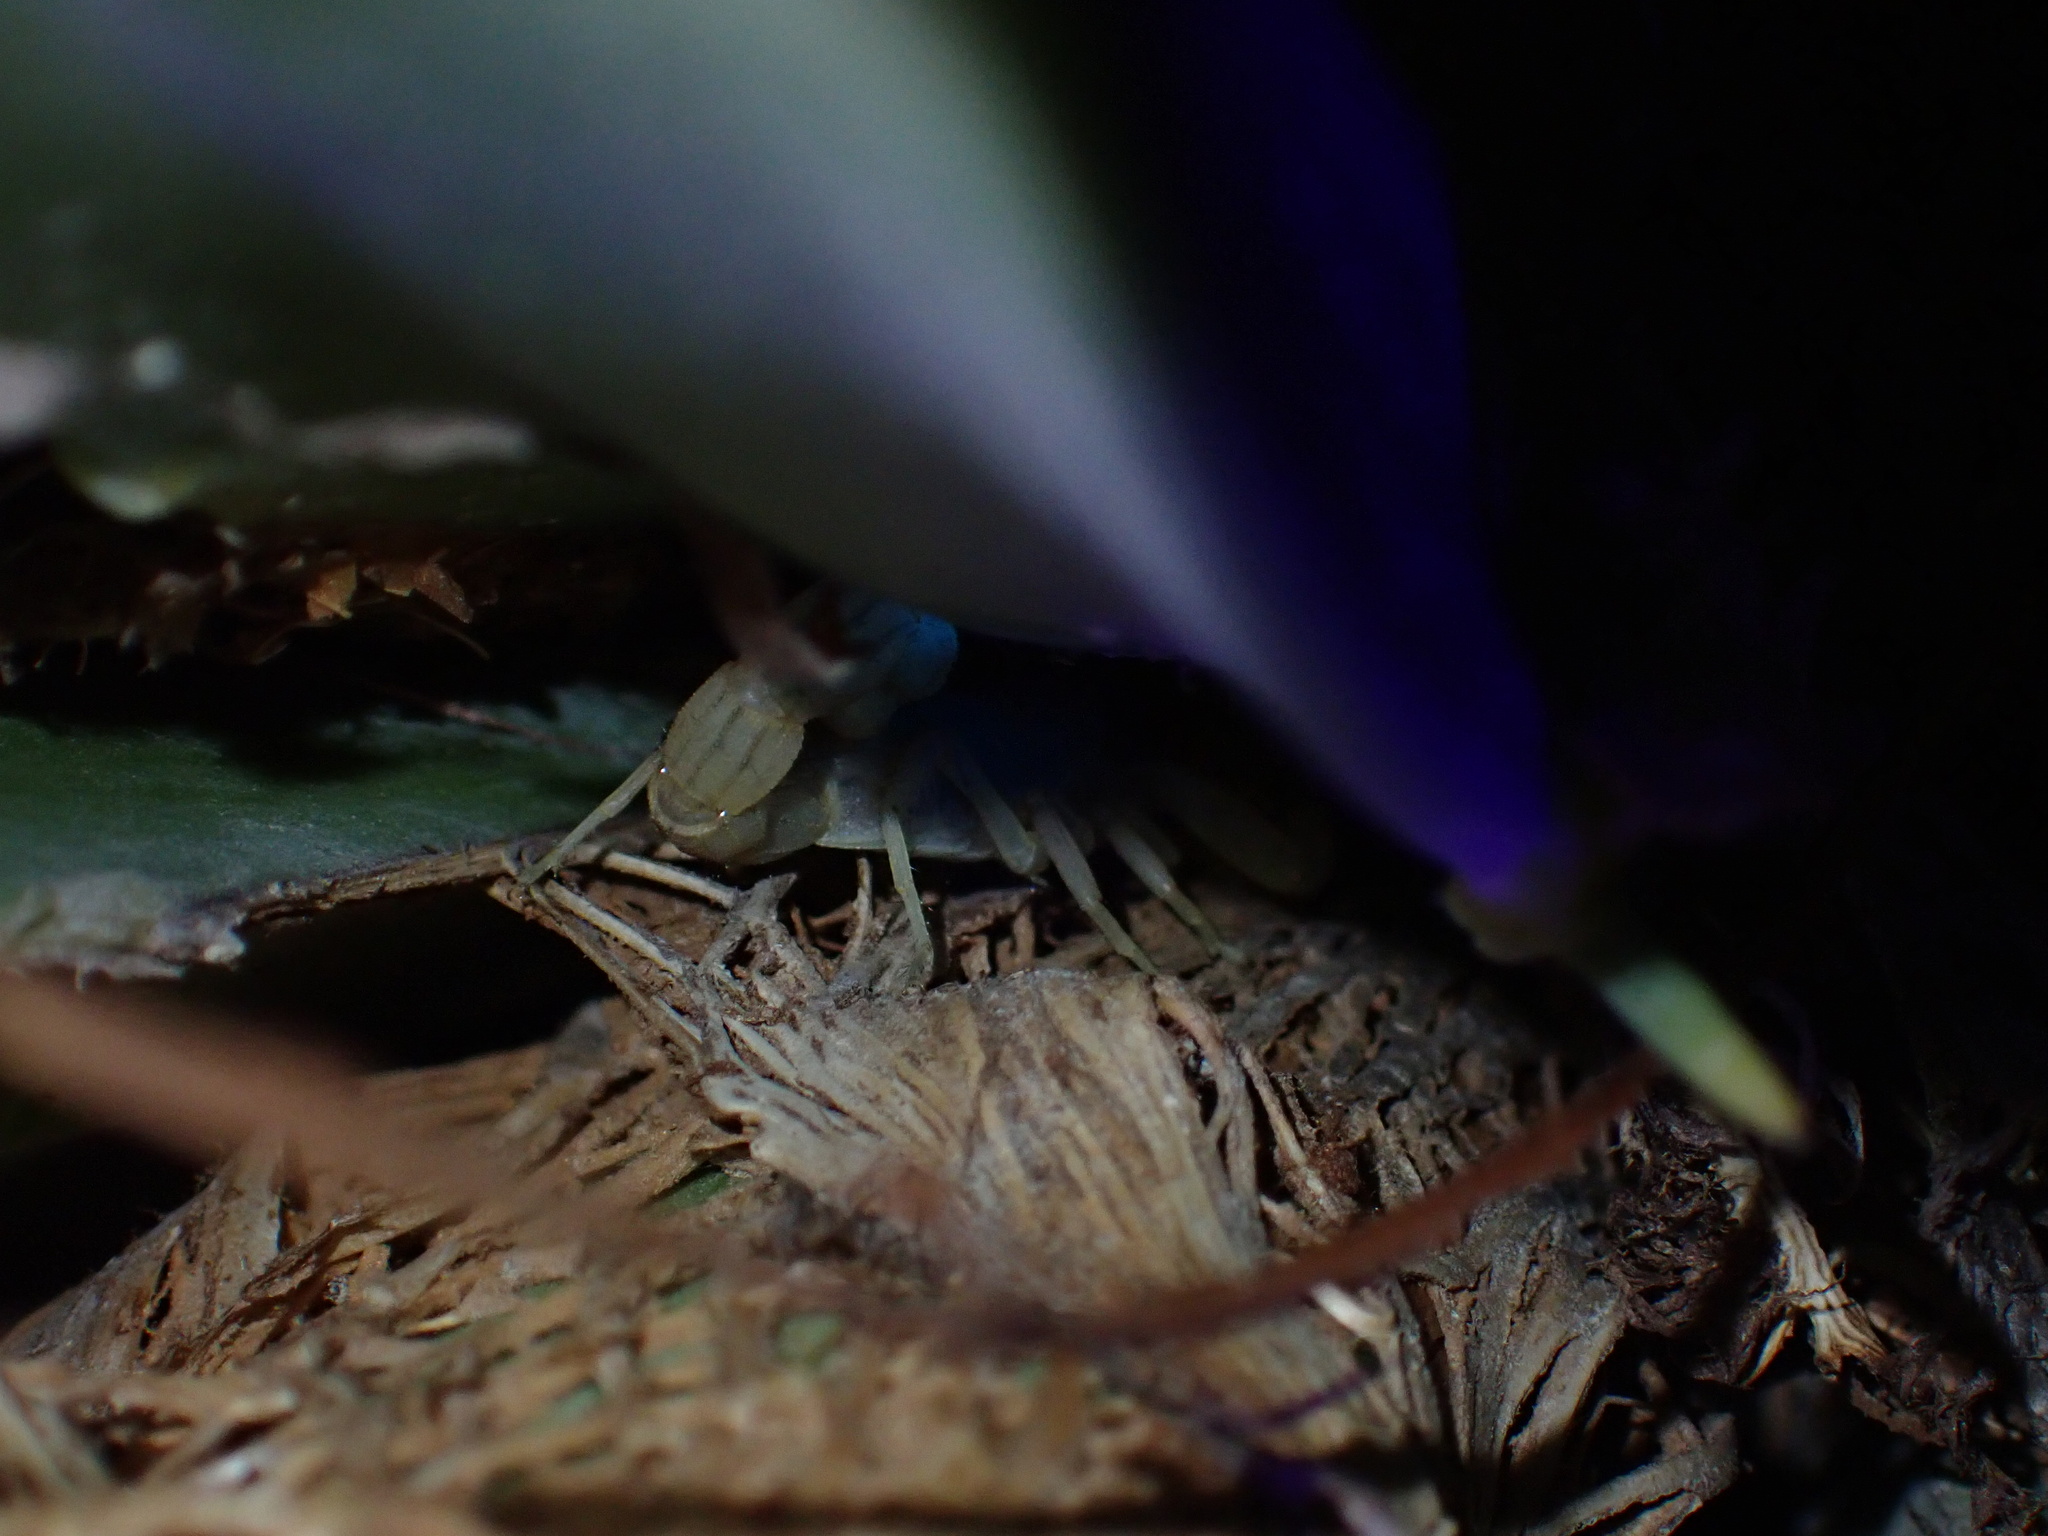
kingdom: Animalia
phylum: Arthropoda
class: Arachnida
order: Scorpiones
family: Buthidae
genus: Mesobuthus
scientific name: Mesobuthus mirshamsii
